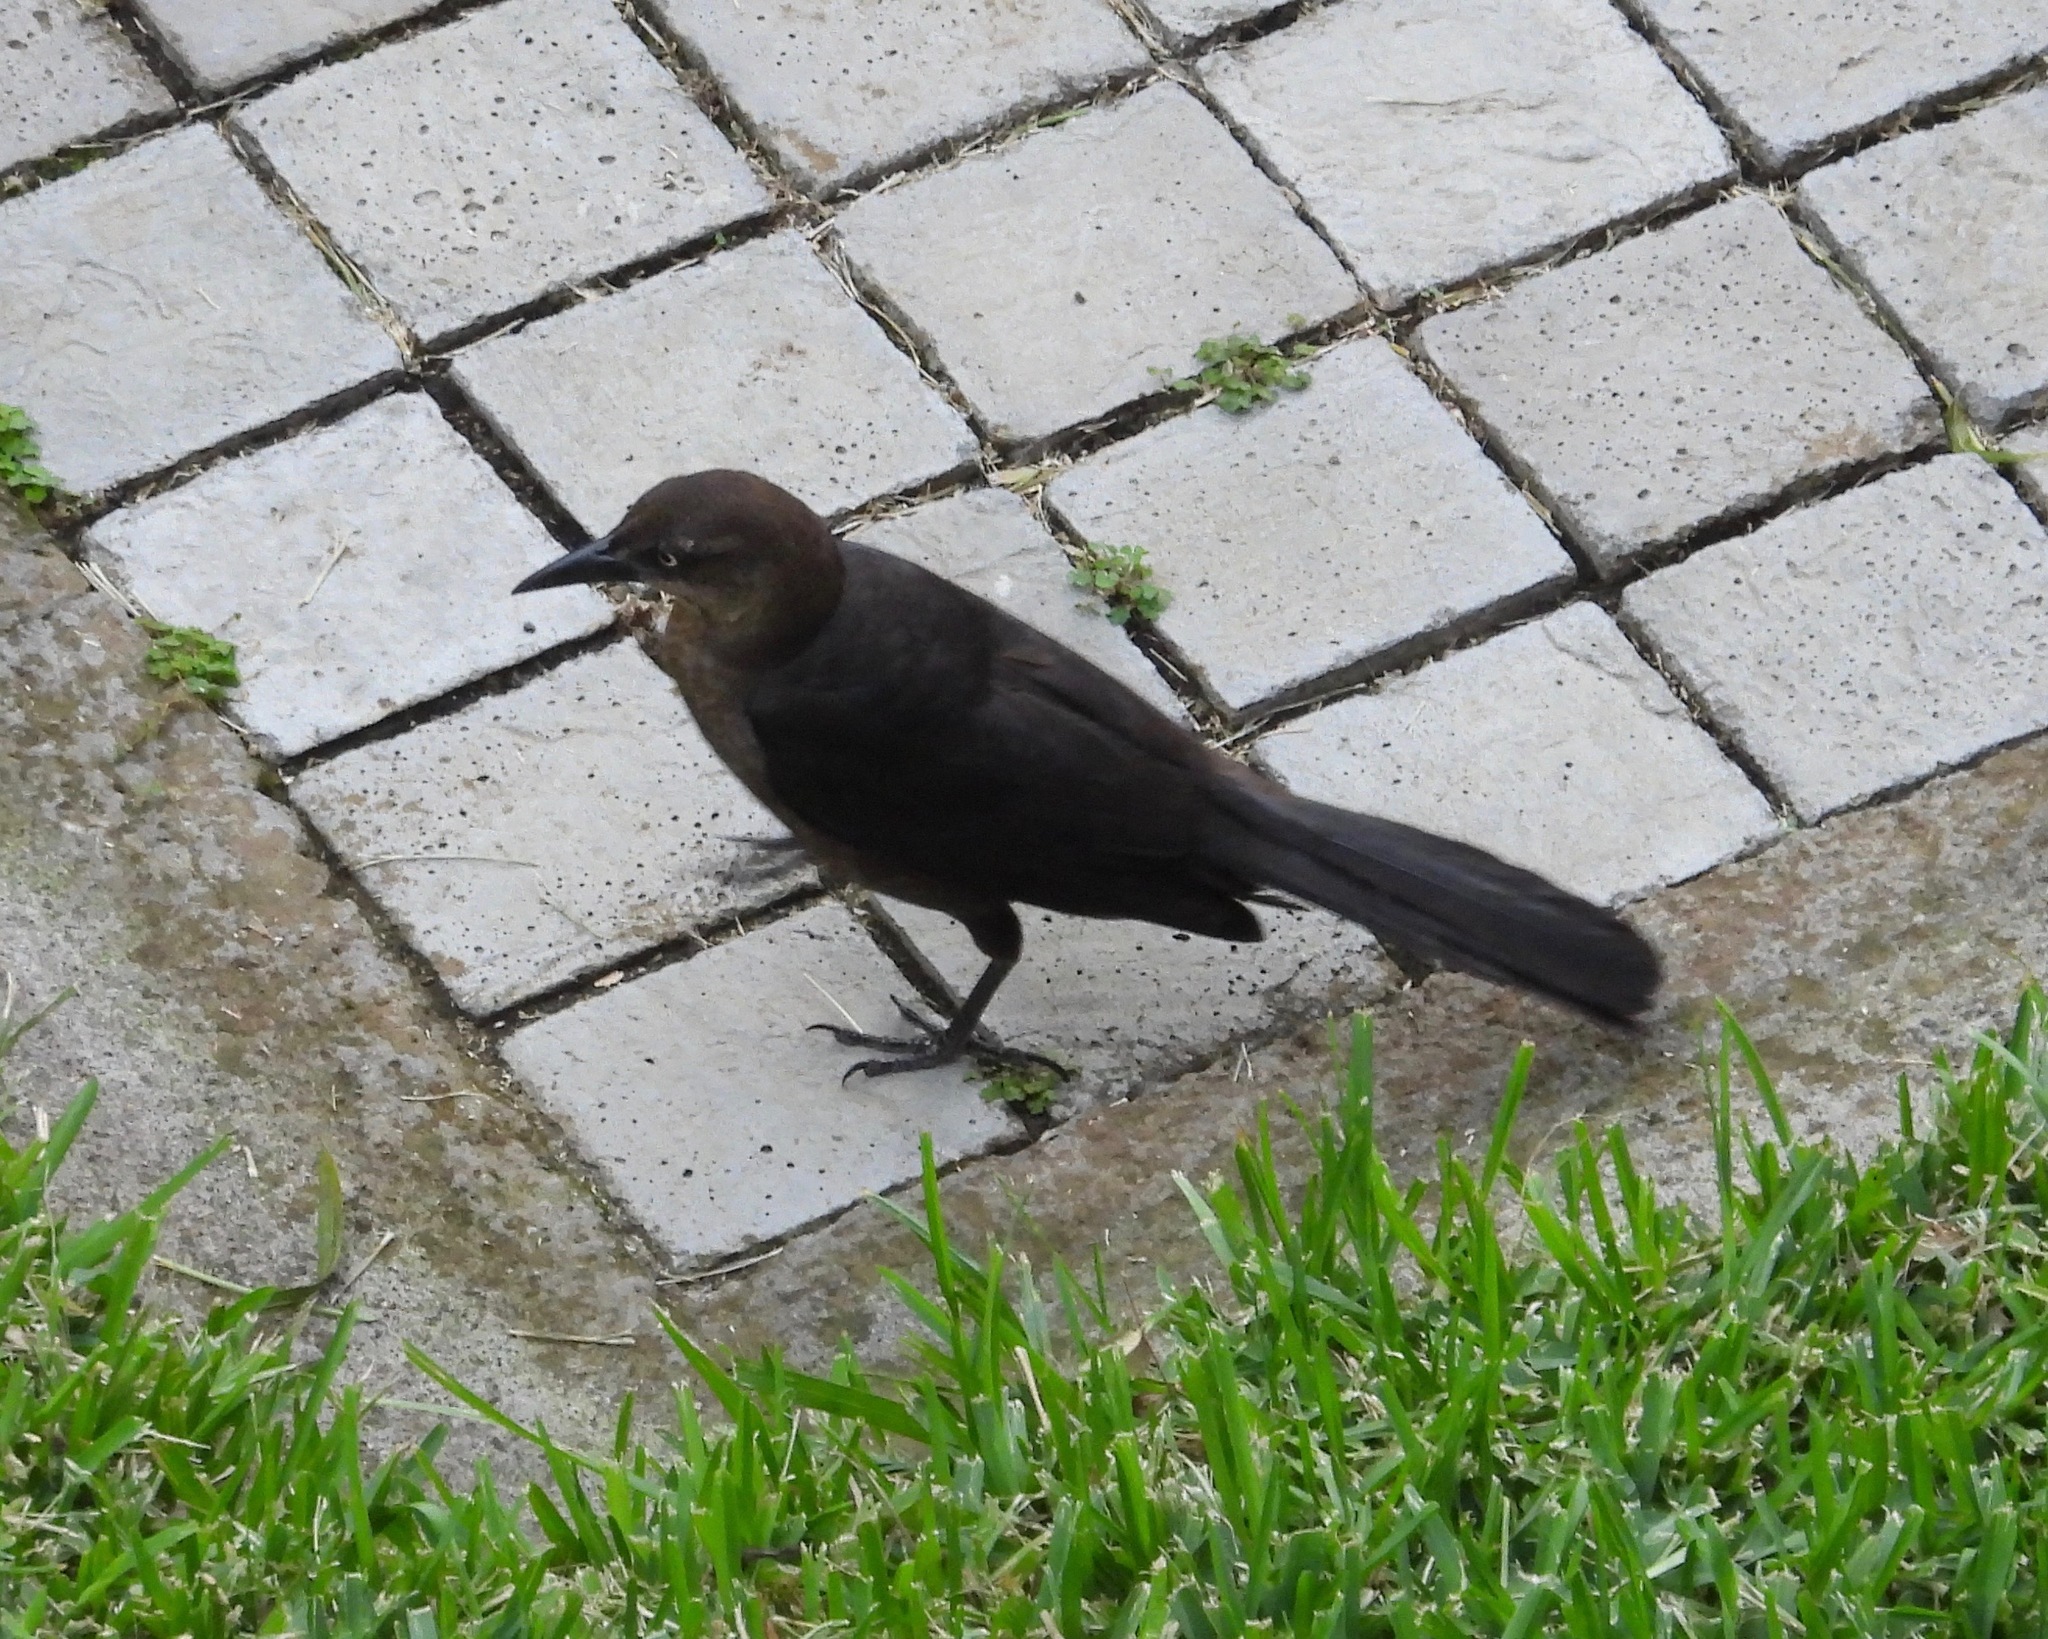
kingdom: Animalia
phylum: Chordata
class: Aves
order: Passeriformes
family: Icteridae
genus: Quiscalus
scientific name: Quiscalus mexicanus
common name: Great-tailed grackle
